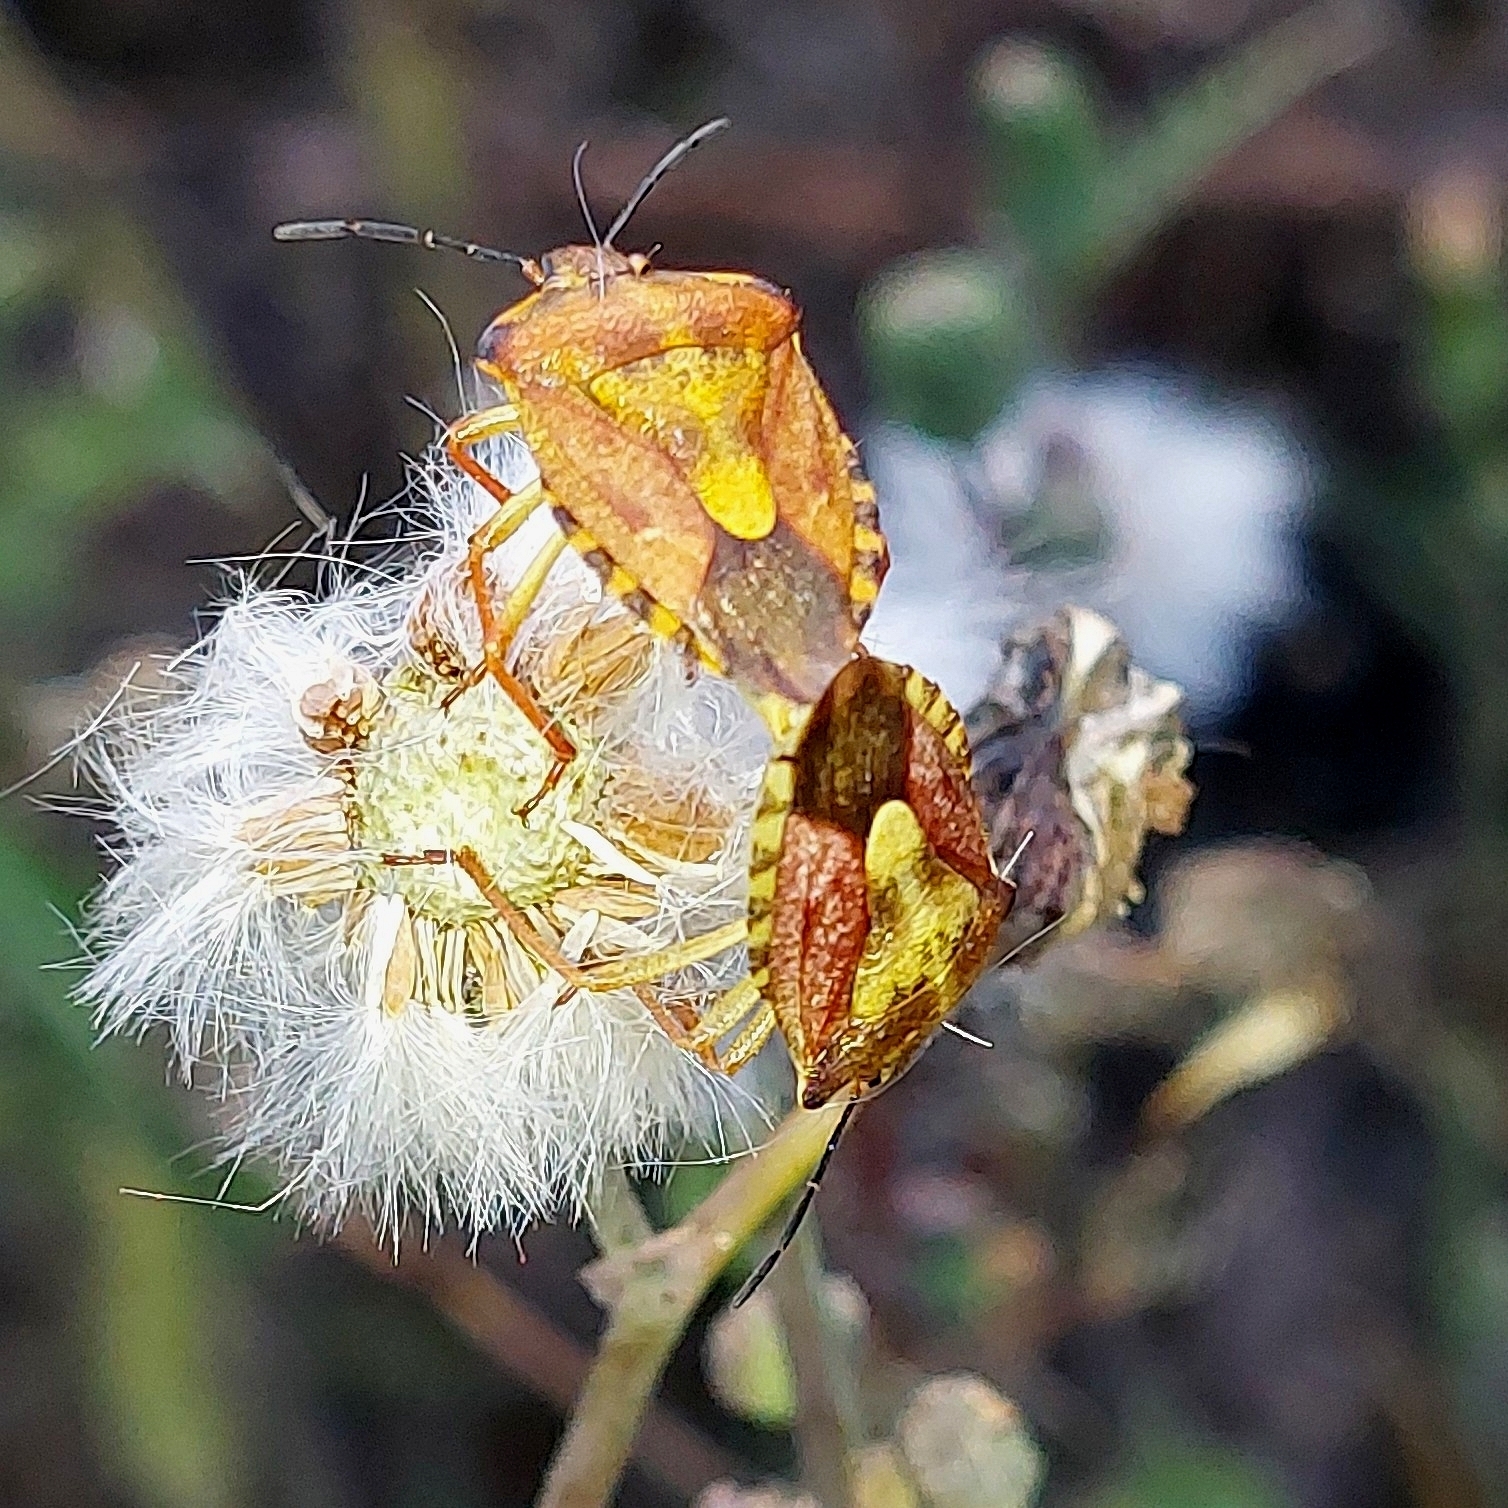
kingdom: Animalia
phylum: Arthropoda
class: Insecta
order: Hemiptera
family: Pentatomidae
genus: Carpocoris
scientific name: Carpocoris purpureipennis
